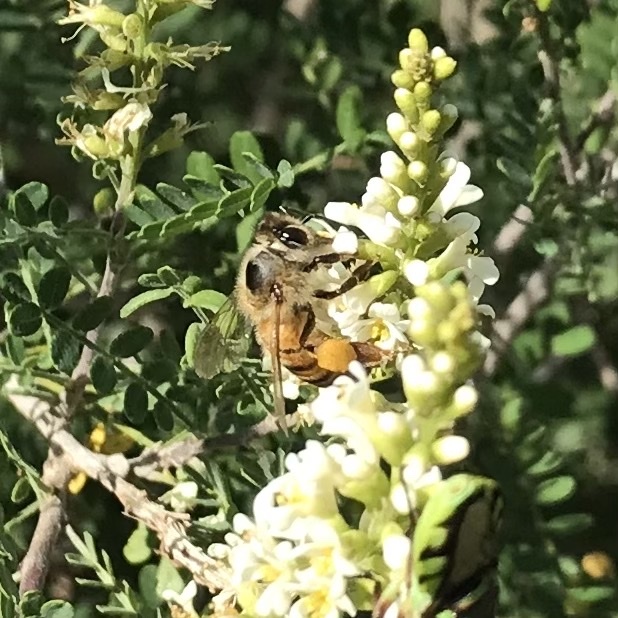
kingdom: Animalia
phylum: Arthropoda
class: Insecta
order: Hymenoptera
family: Apidae
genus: Apis
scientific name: Apis mellifera
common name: Honey bee
